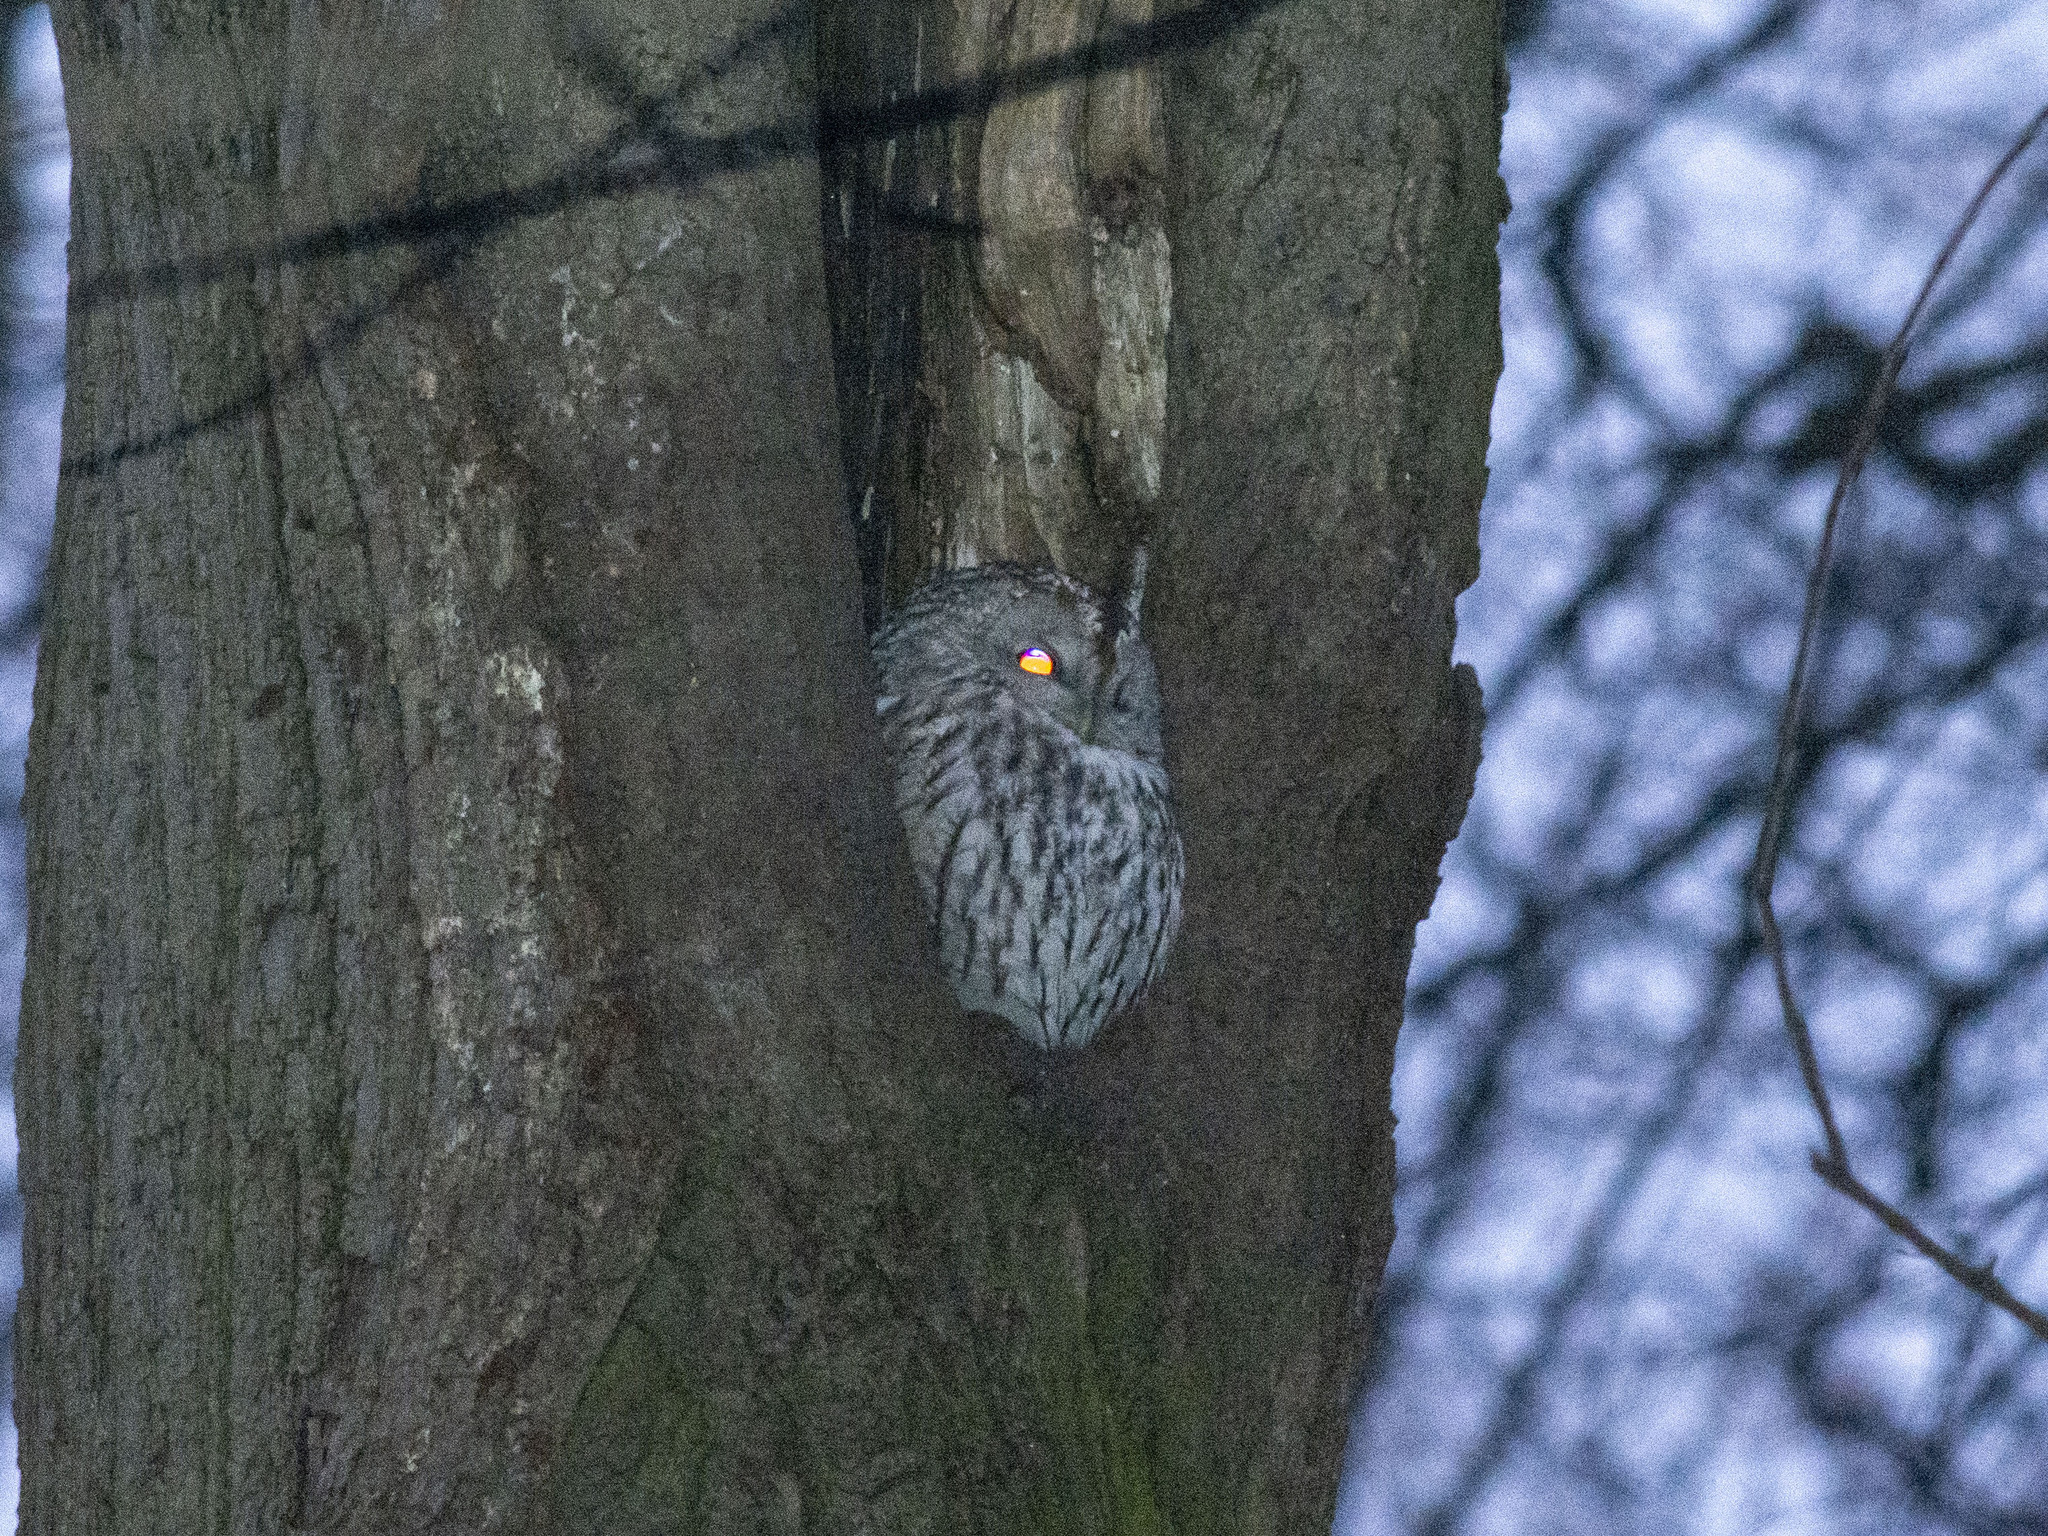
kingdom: Animalia
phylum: Chordata
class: Aves
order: Strigiformes
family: Strigidae
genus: Strix
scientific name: Strix aluco
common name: Tawny owl
